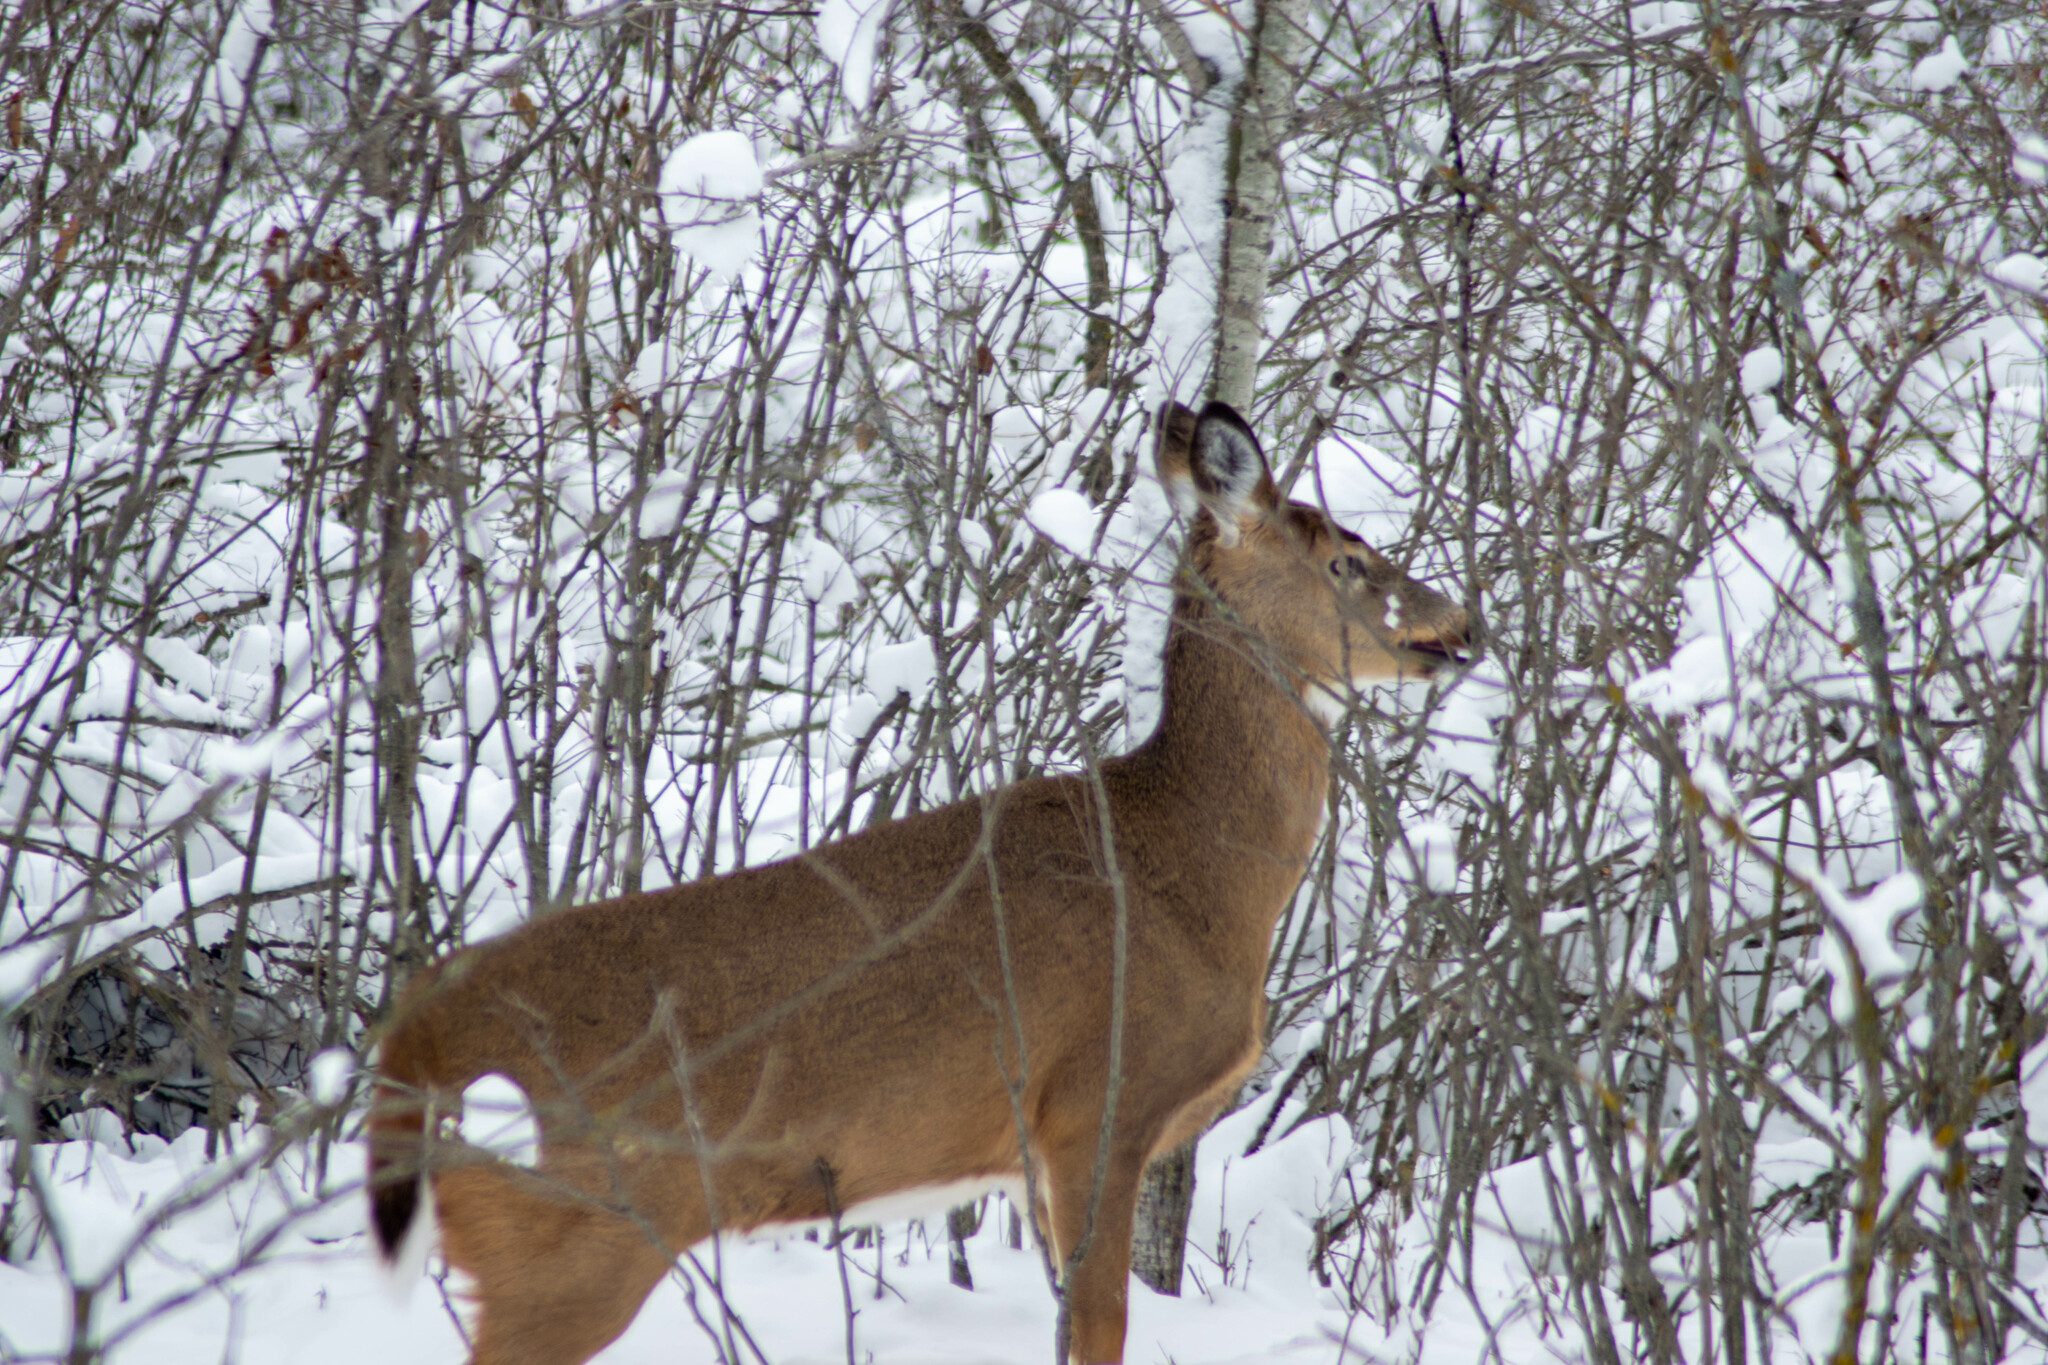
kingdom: Animalia
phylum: Chordata
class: Mammalia
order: Artiodactyla
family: Cervidae
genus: Odocoileus
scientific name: Odocoileus virginianus
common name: White-tailed deer
